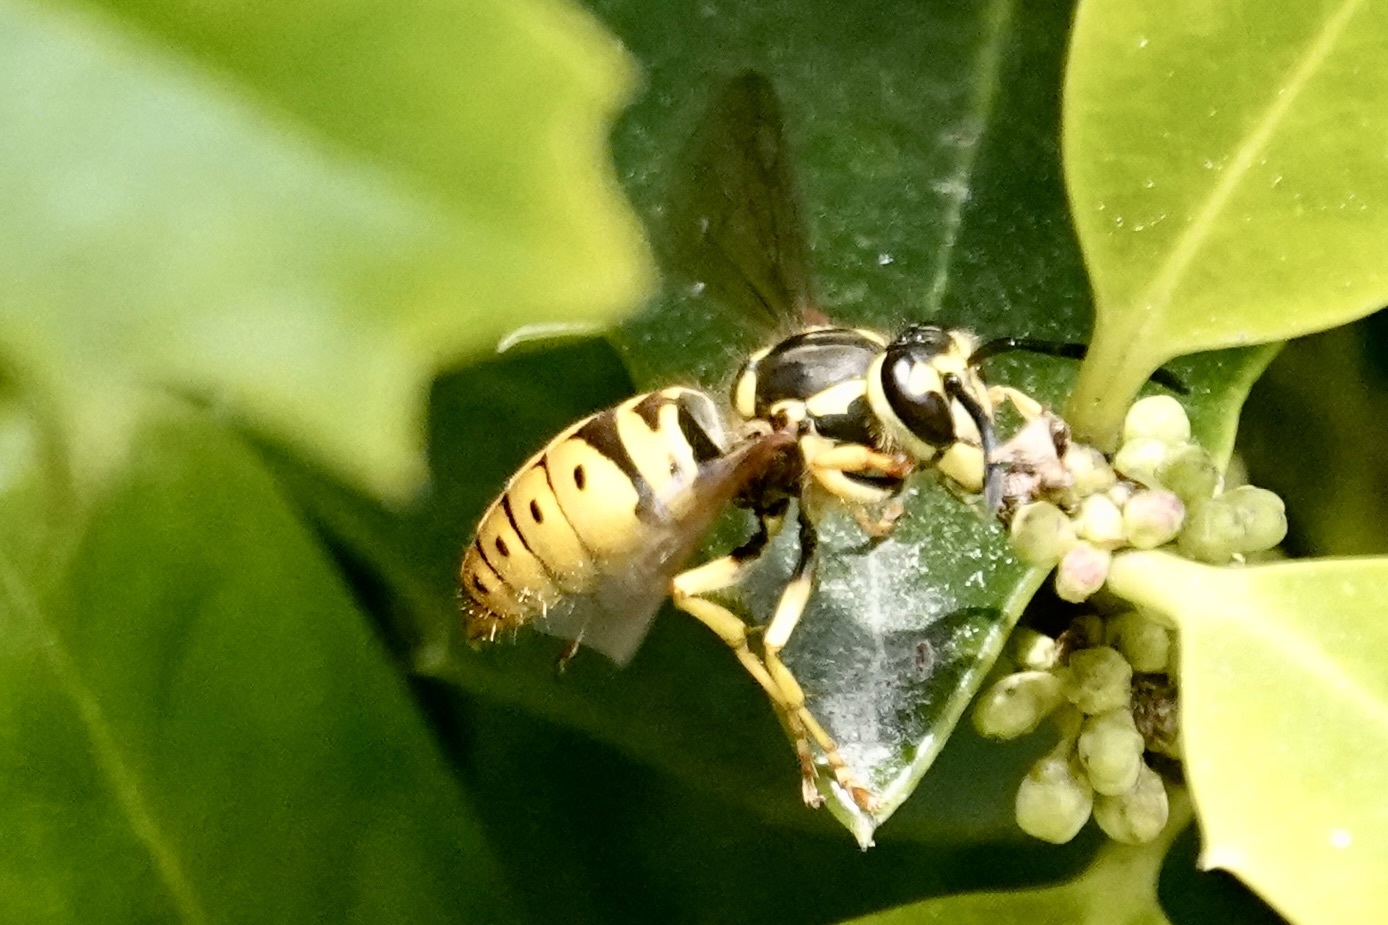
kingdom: Animalia
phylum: Arthropoda
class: Insecta
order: Hymenoptera
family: Vespidae
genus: Vespula
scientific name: Vespula maculifrons
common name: Eastern yellowjacket
